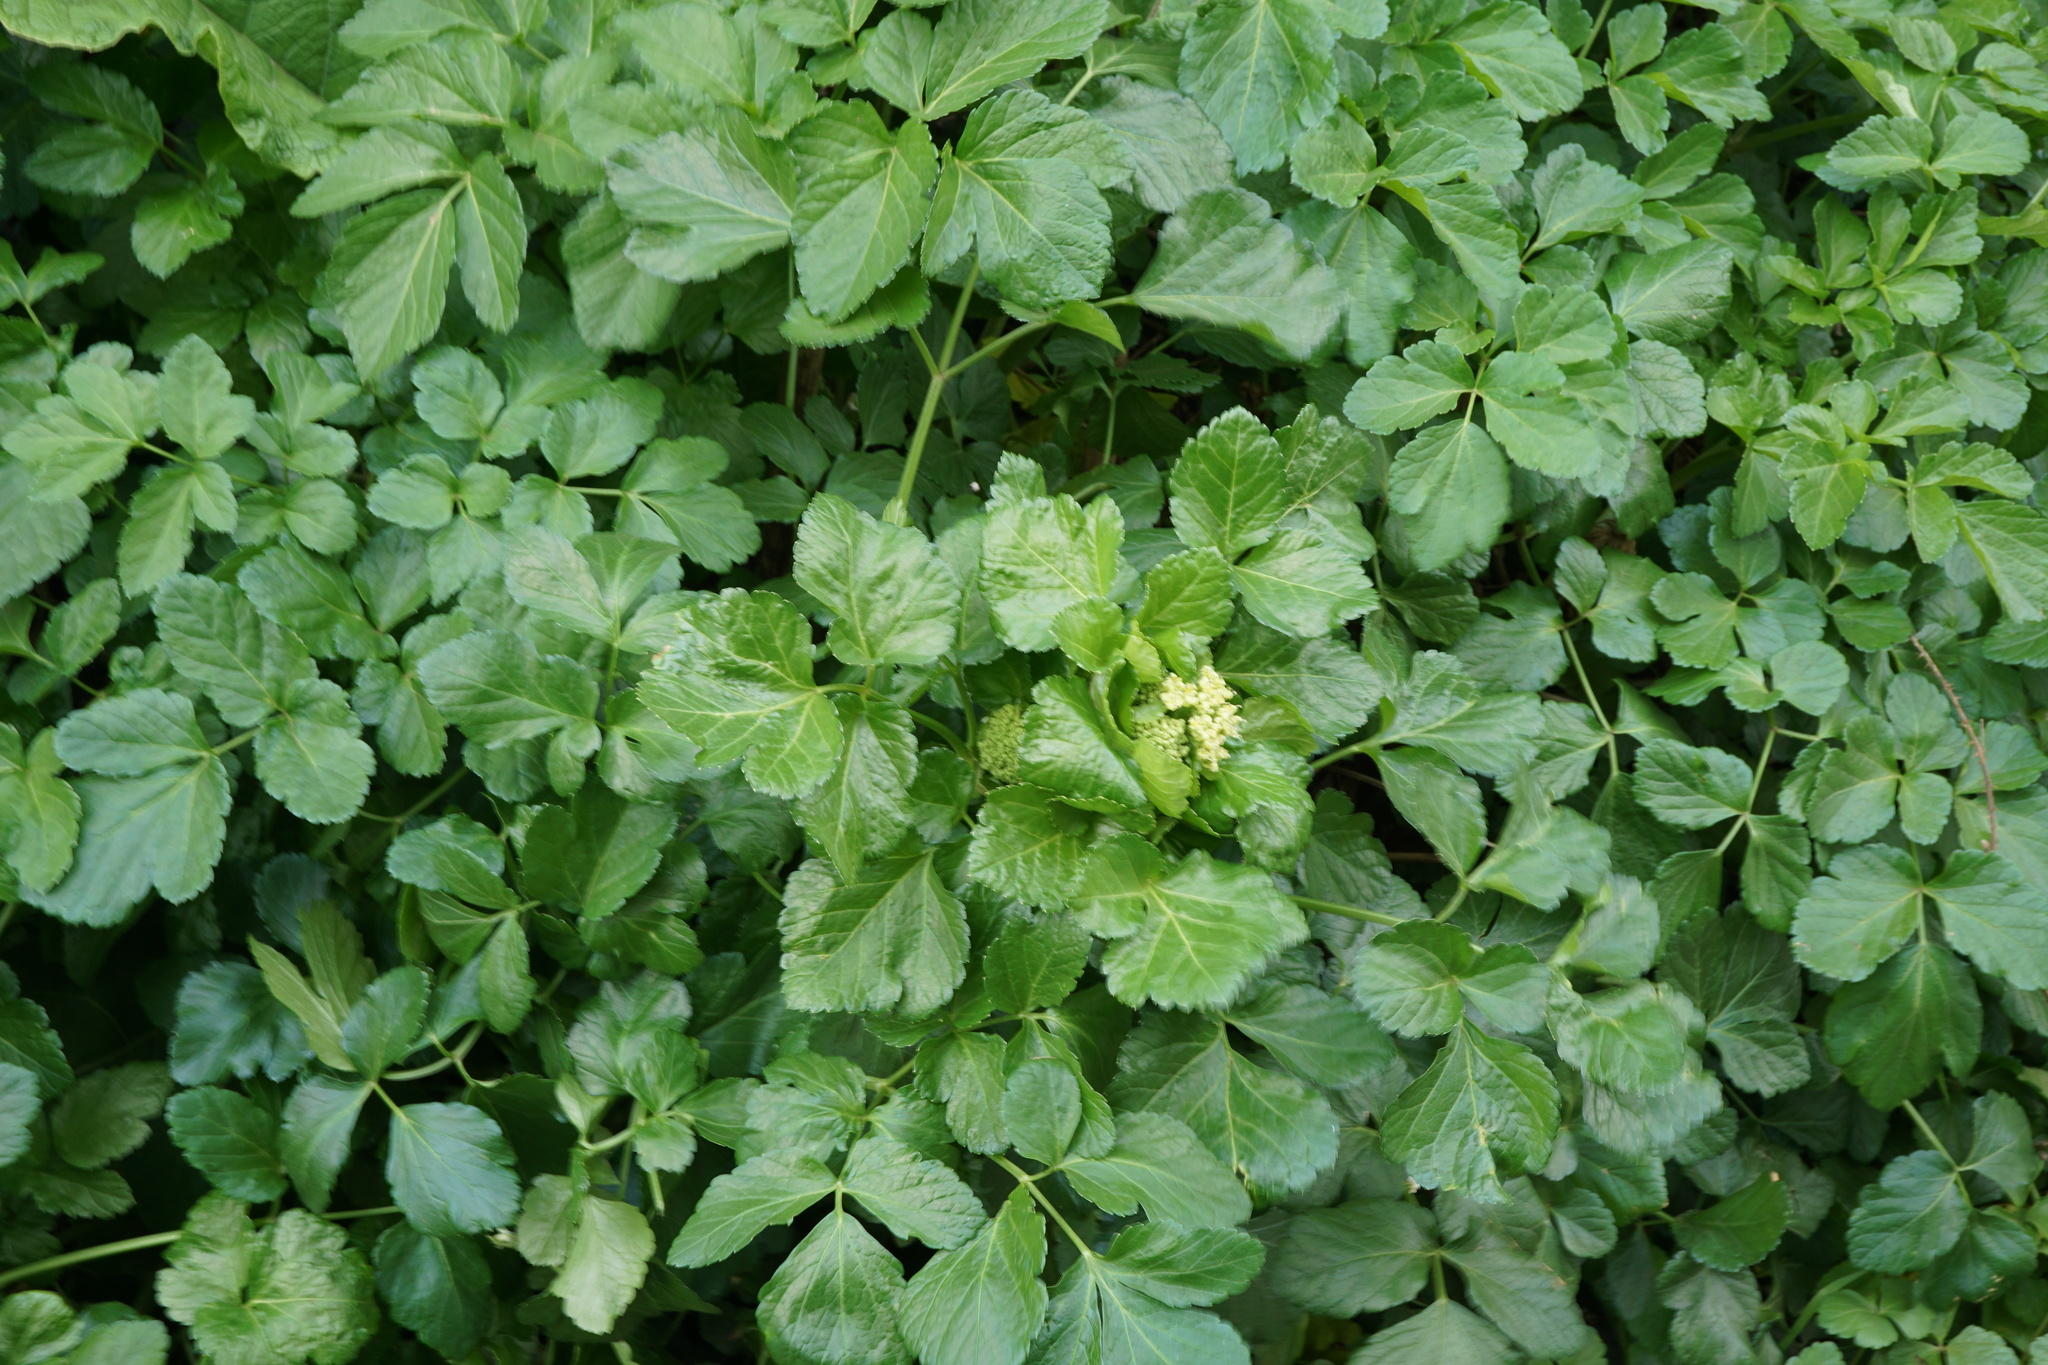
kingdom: Plantae
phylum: Tracheophyta
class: Magnoliopsida
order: Apiales
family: Apiaceae
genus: Smyrnium
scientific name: Smyrnium olusatrum
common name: Alexanders
